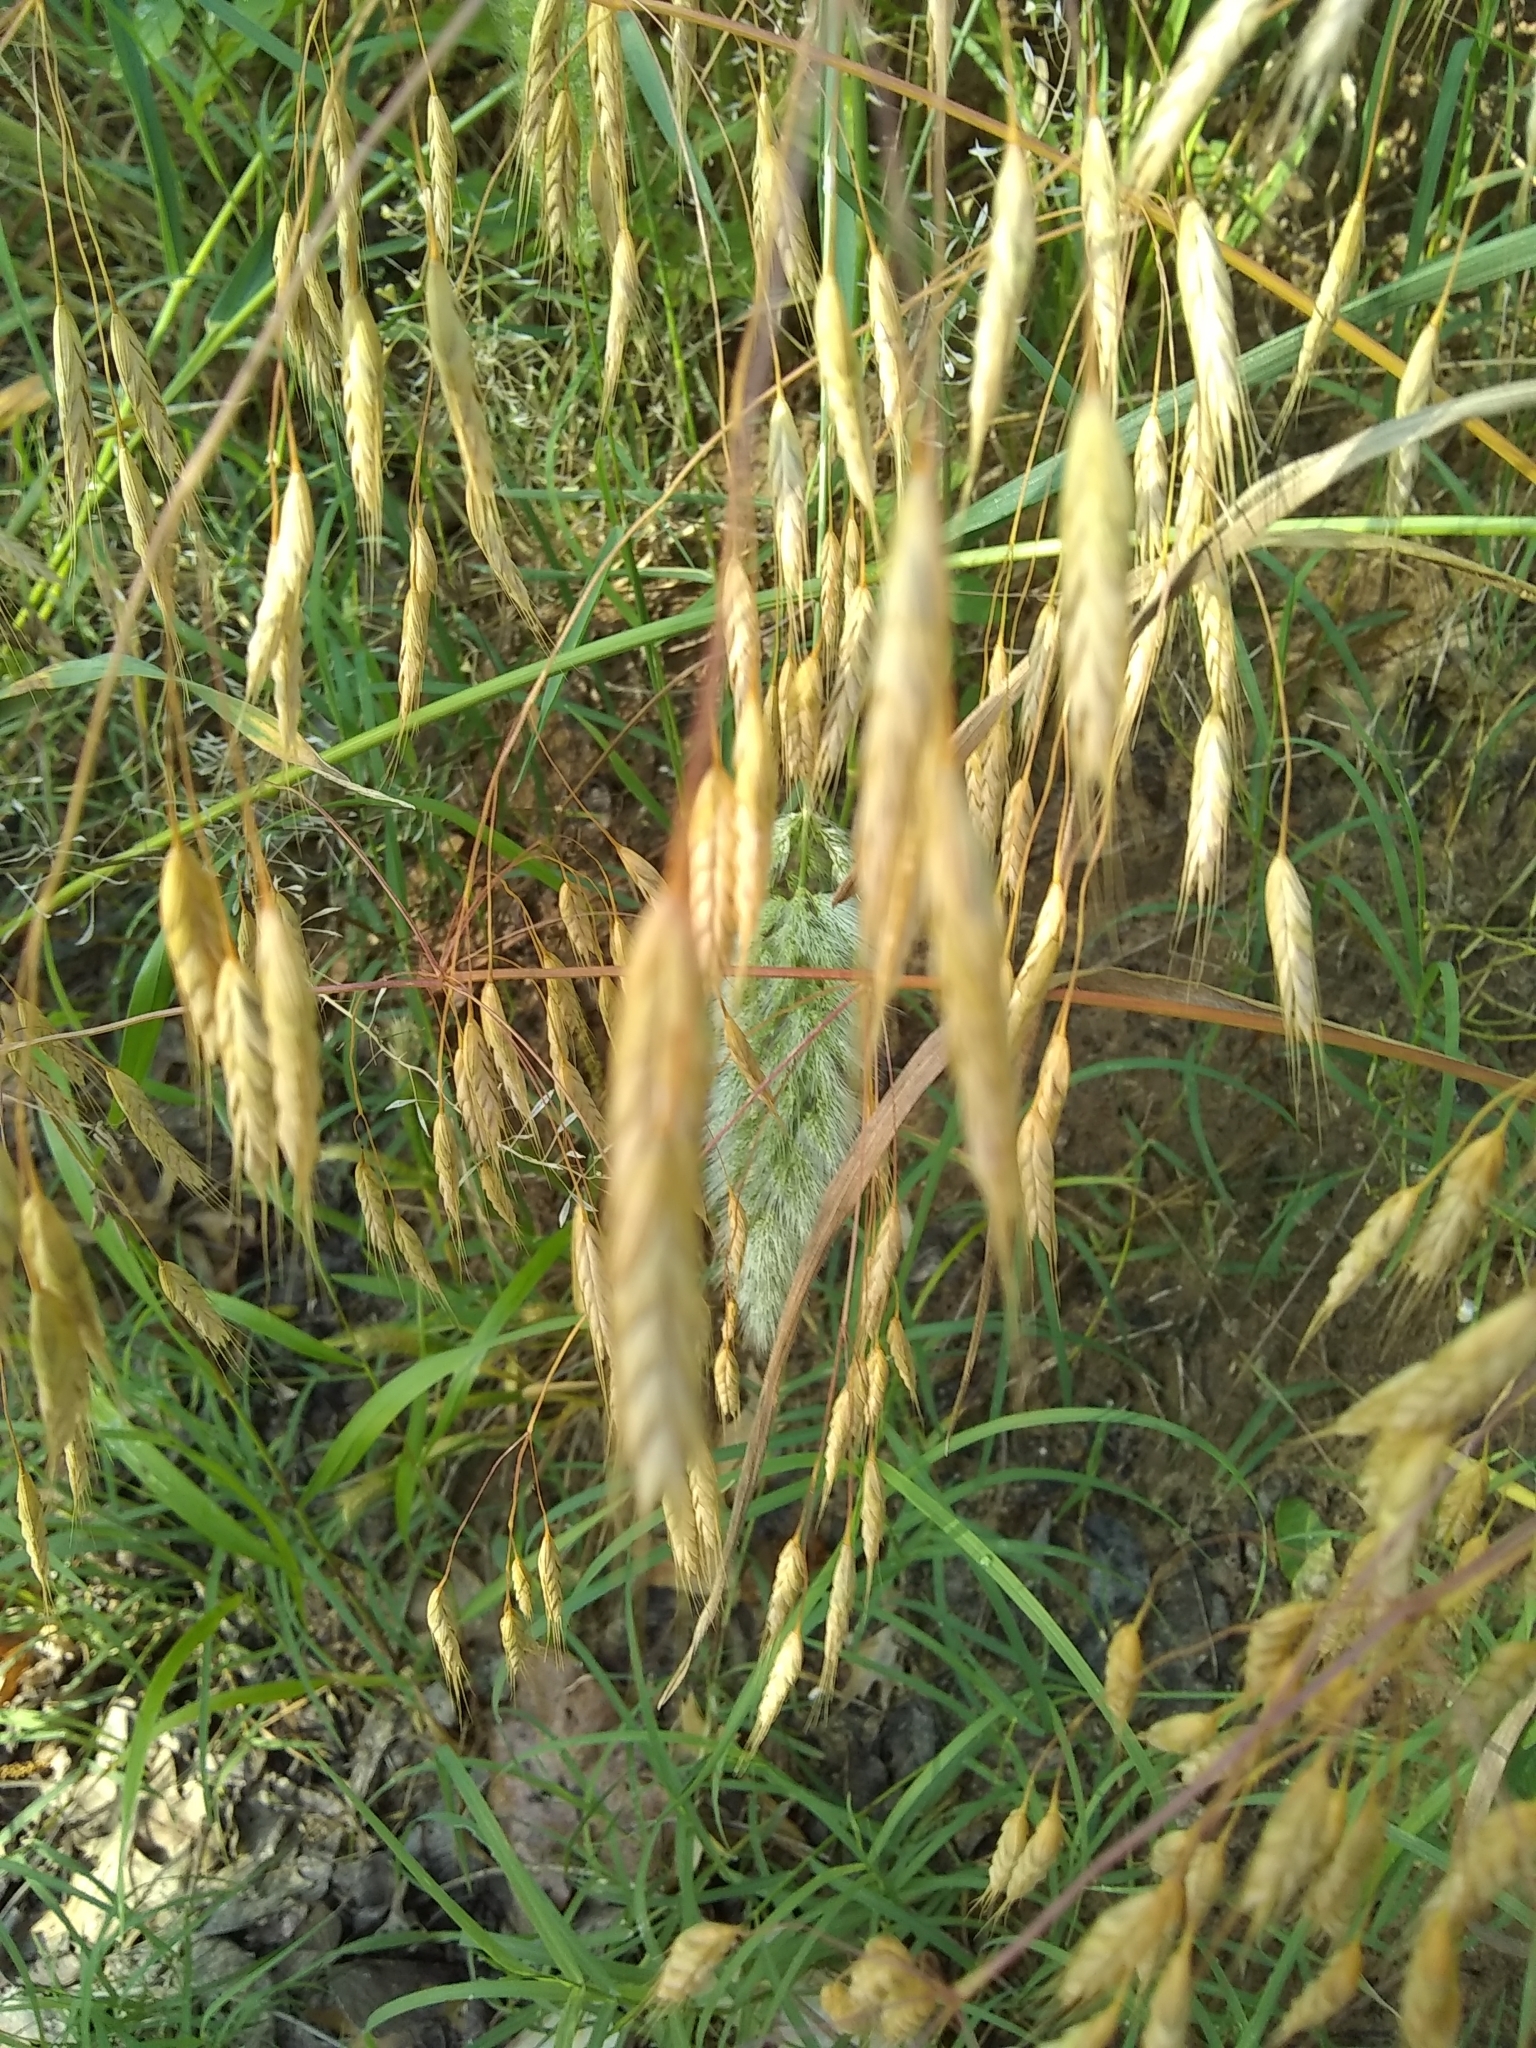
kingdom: Plantae
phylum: Tracheophyta
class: Liliopsida
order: Poales
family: Poaceae
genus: Bromus
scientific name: Bromus japonicus
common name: Japanese brome
